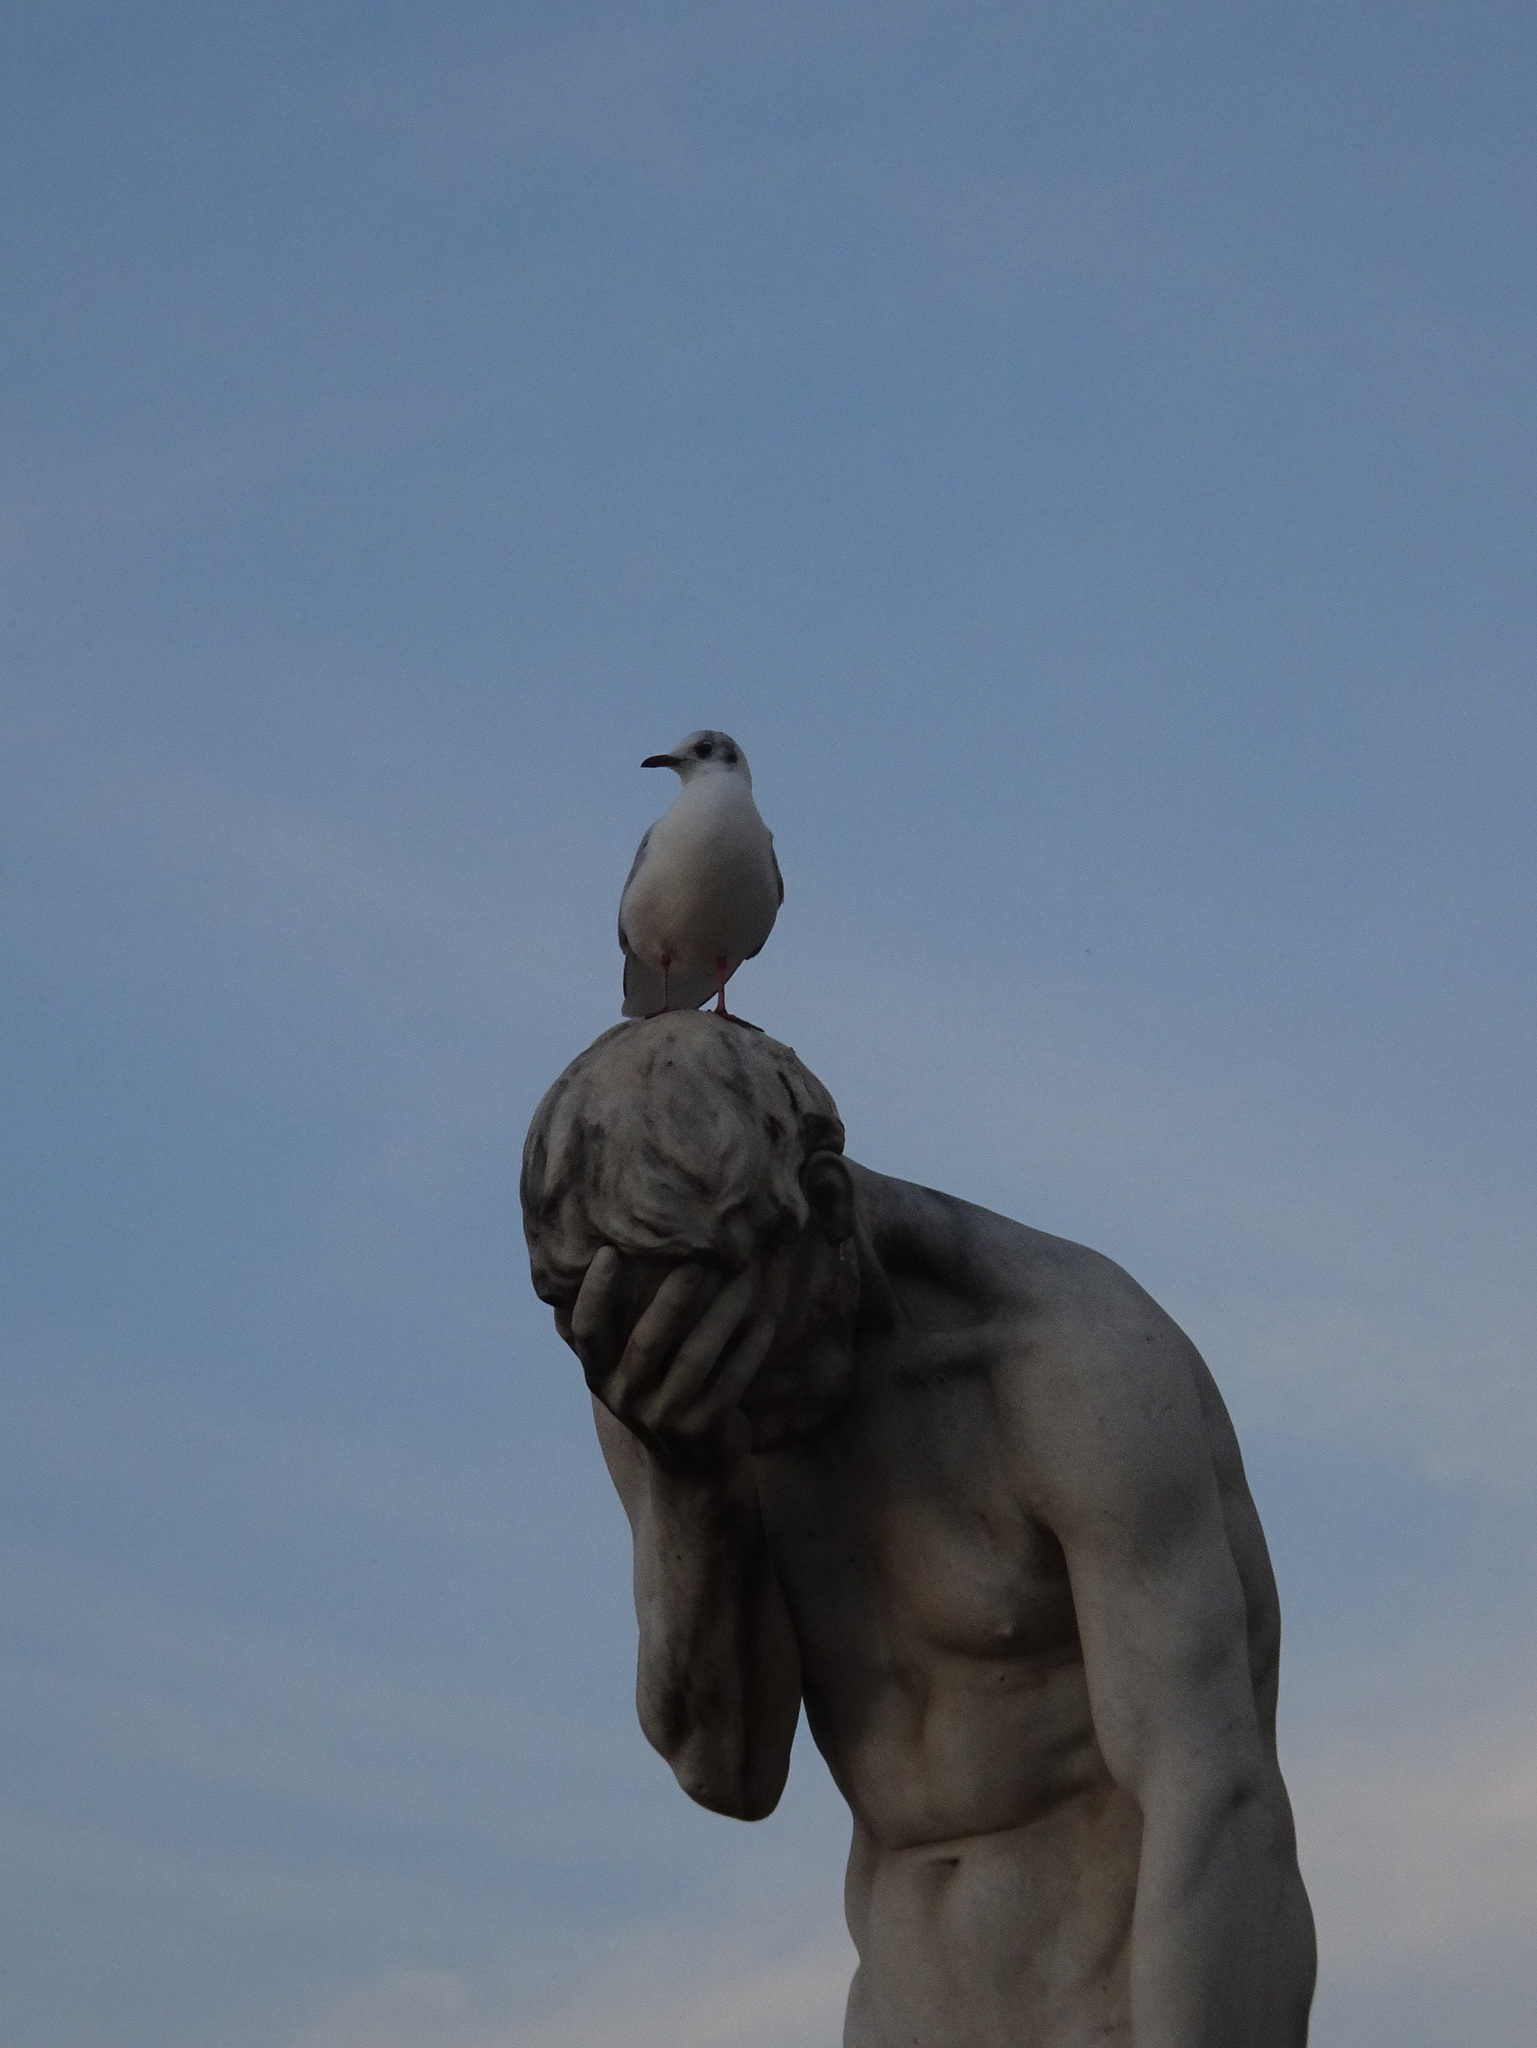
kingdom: Animalia
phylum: Chordata
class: Aves
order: Charadriiformes
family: Laridae
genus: Chroicocephalus
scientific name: Chroicocephalus ridibundus
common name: Black-headed gull
